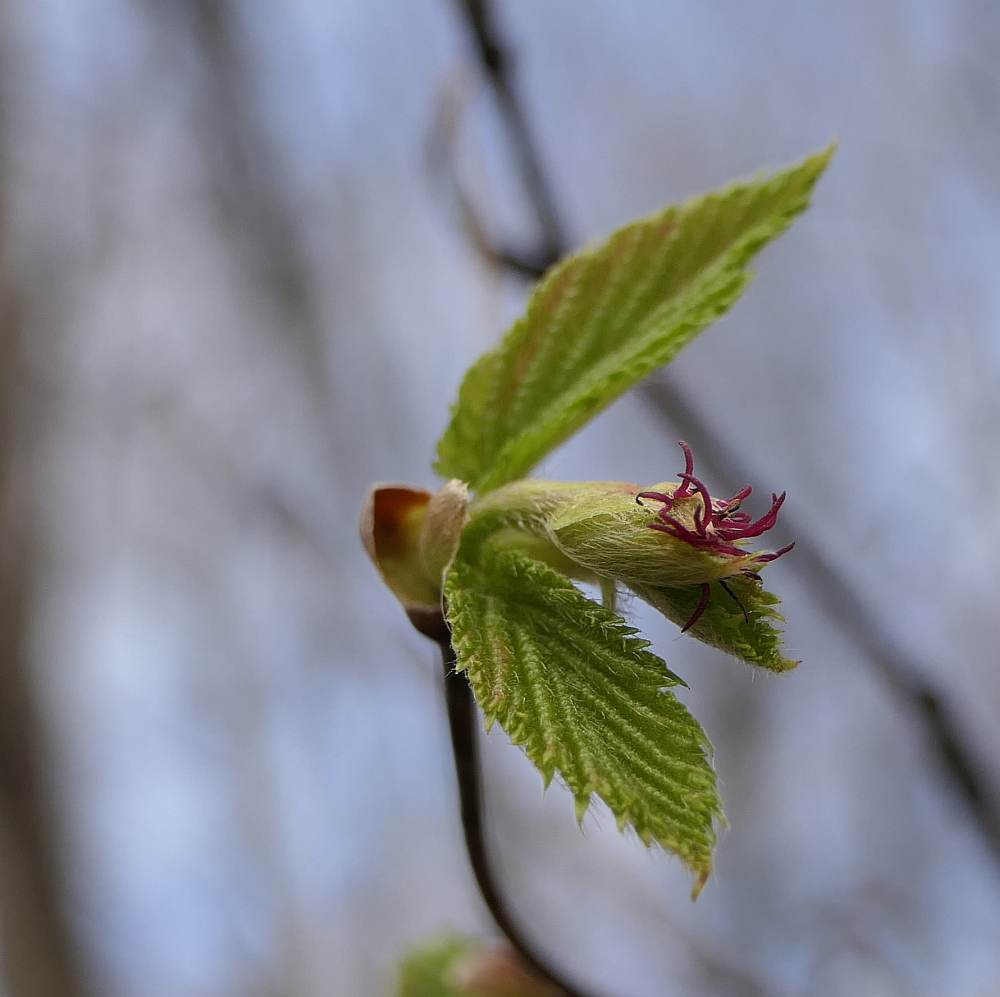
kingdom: Plantae
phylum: Tracheophyta
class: Magnoliopsida
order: Fagales
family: Betulaceae
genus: Corylus
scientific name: Corylus cornuta
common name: Beaked hazel
